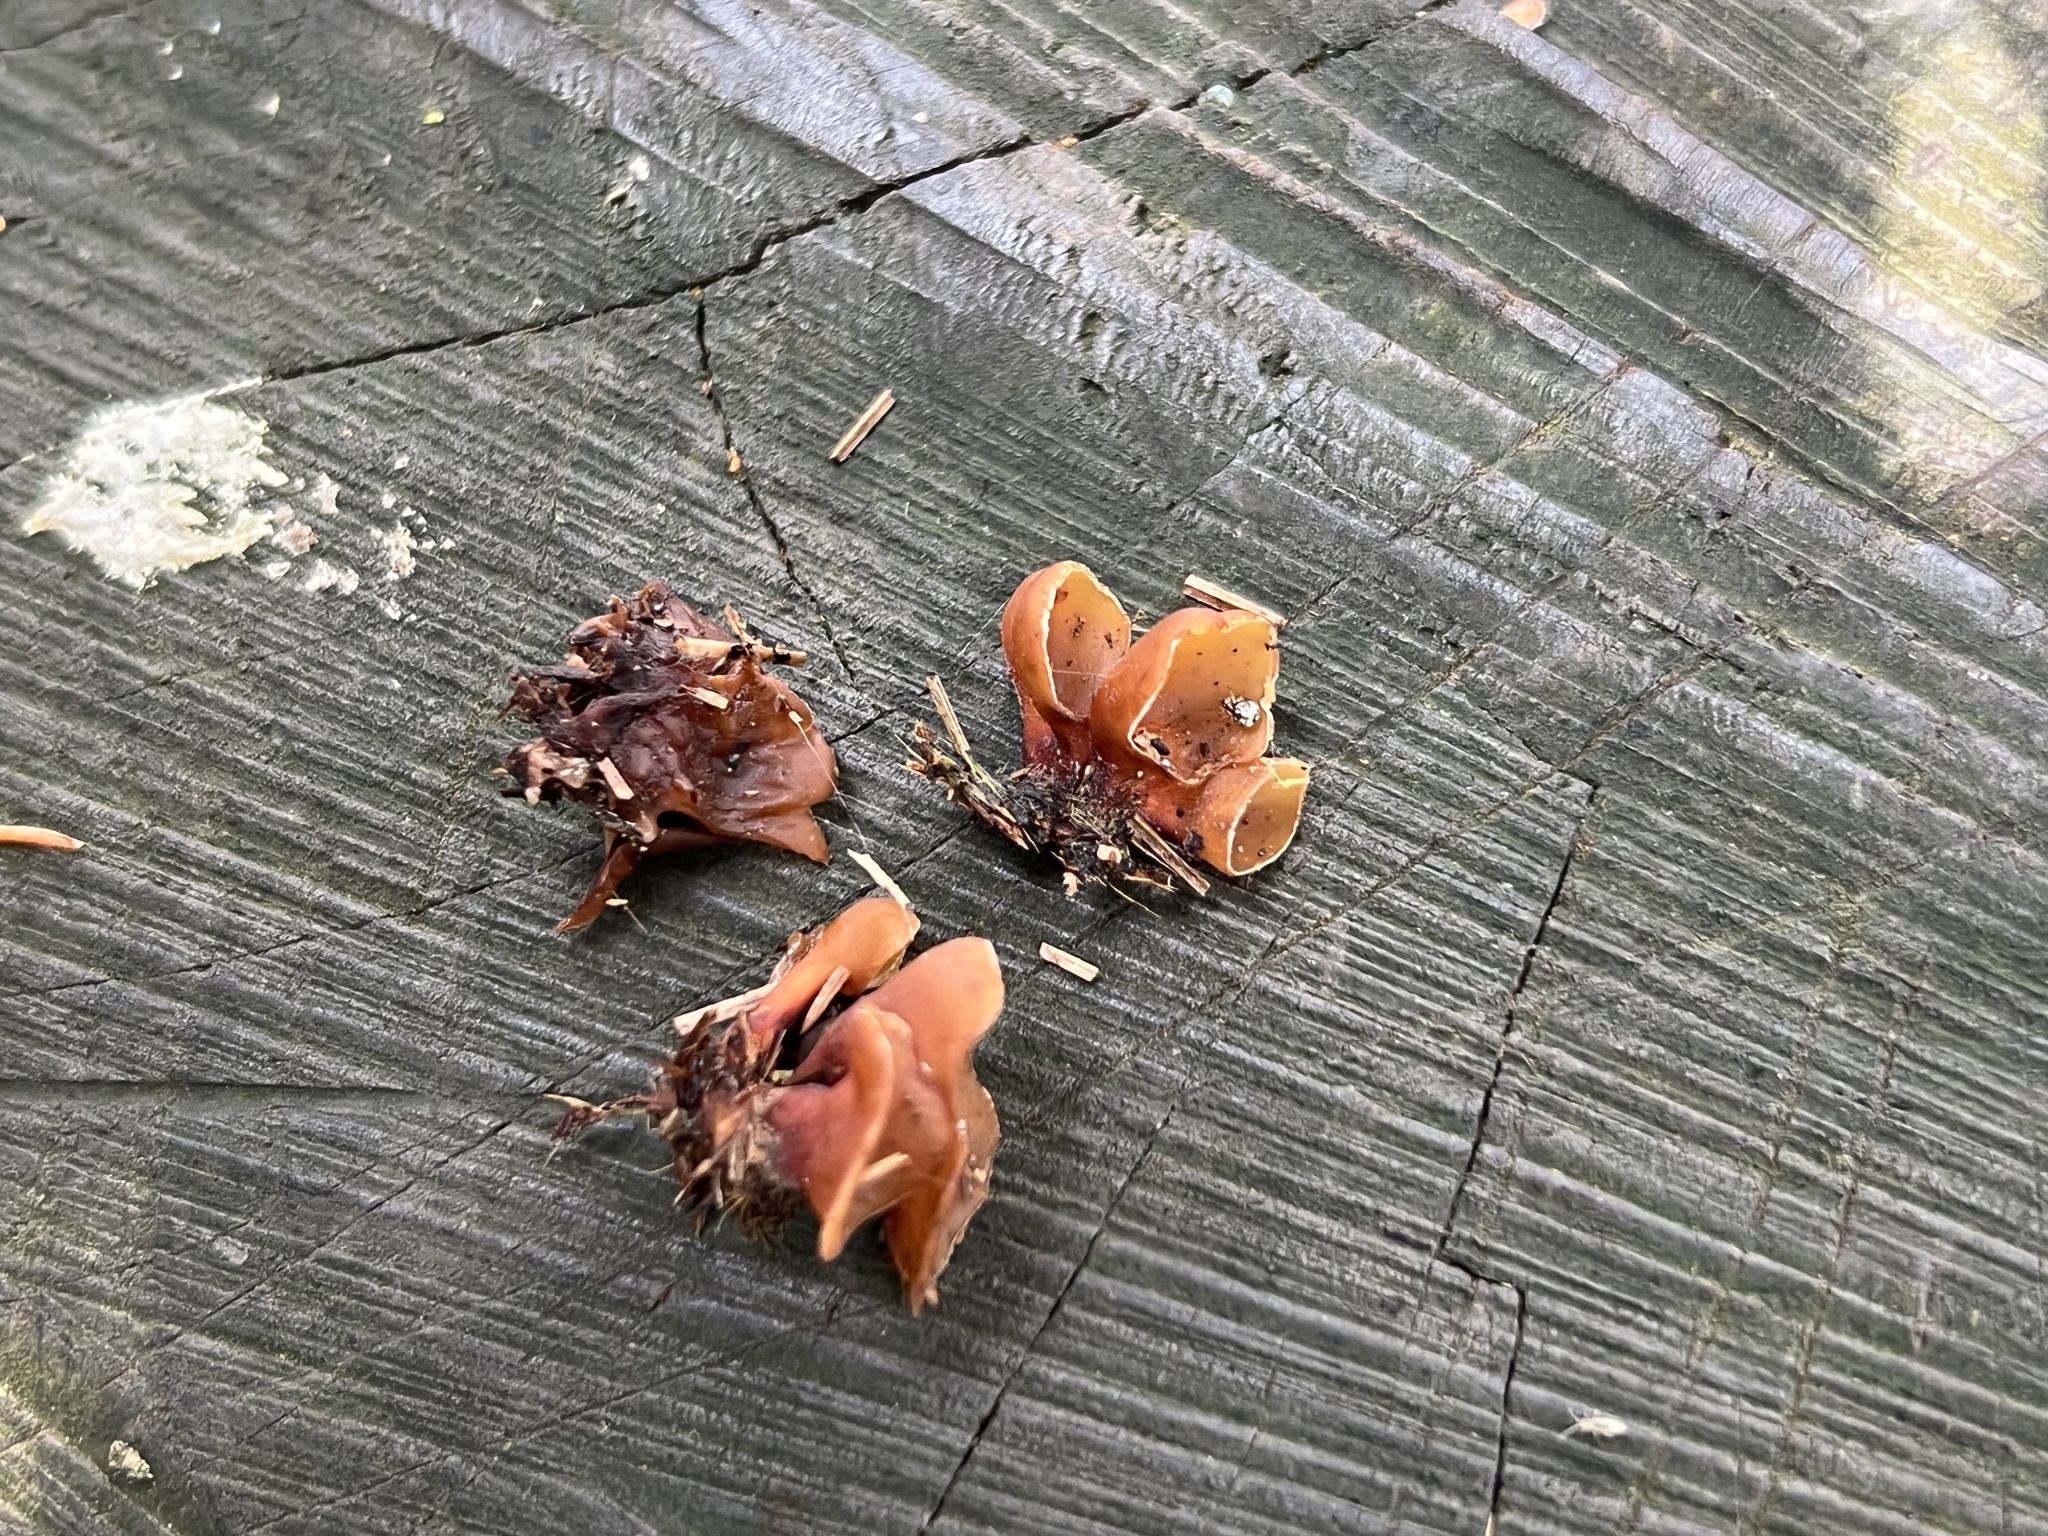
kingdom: Fungi
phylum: Basidiomycota
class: Dacrymycetes
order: Dacrymycetales
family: Dacrymycetaceae
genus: Dacryopinax
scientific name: Dacryopinax elegans
